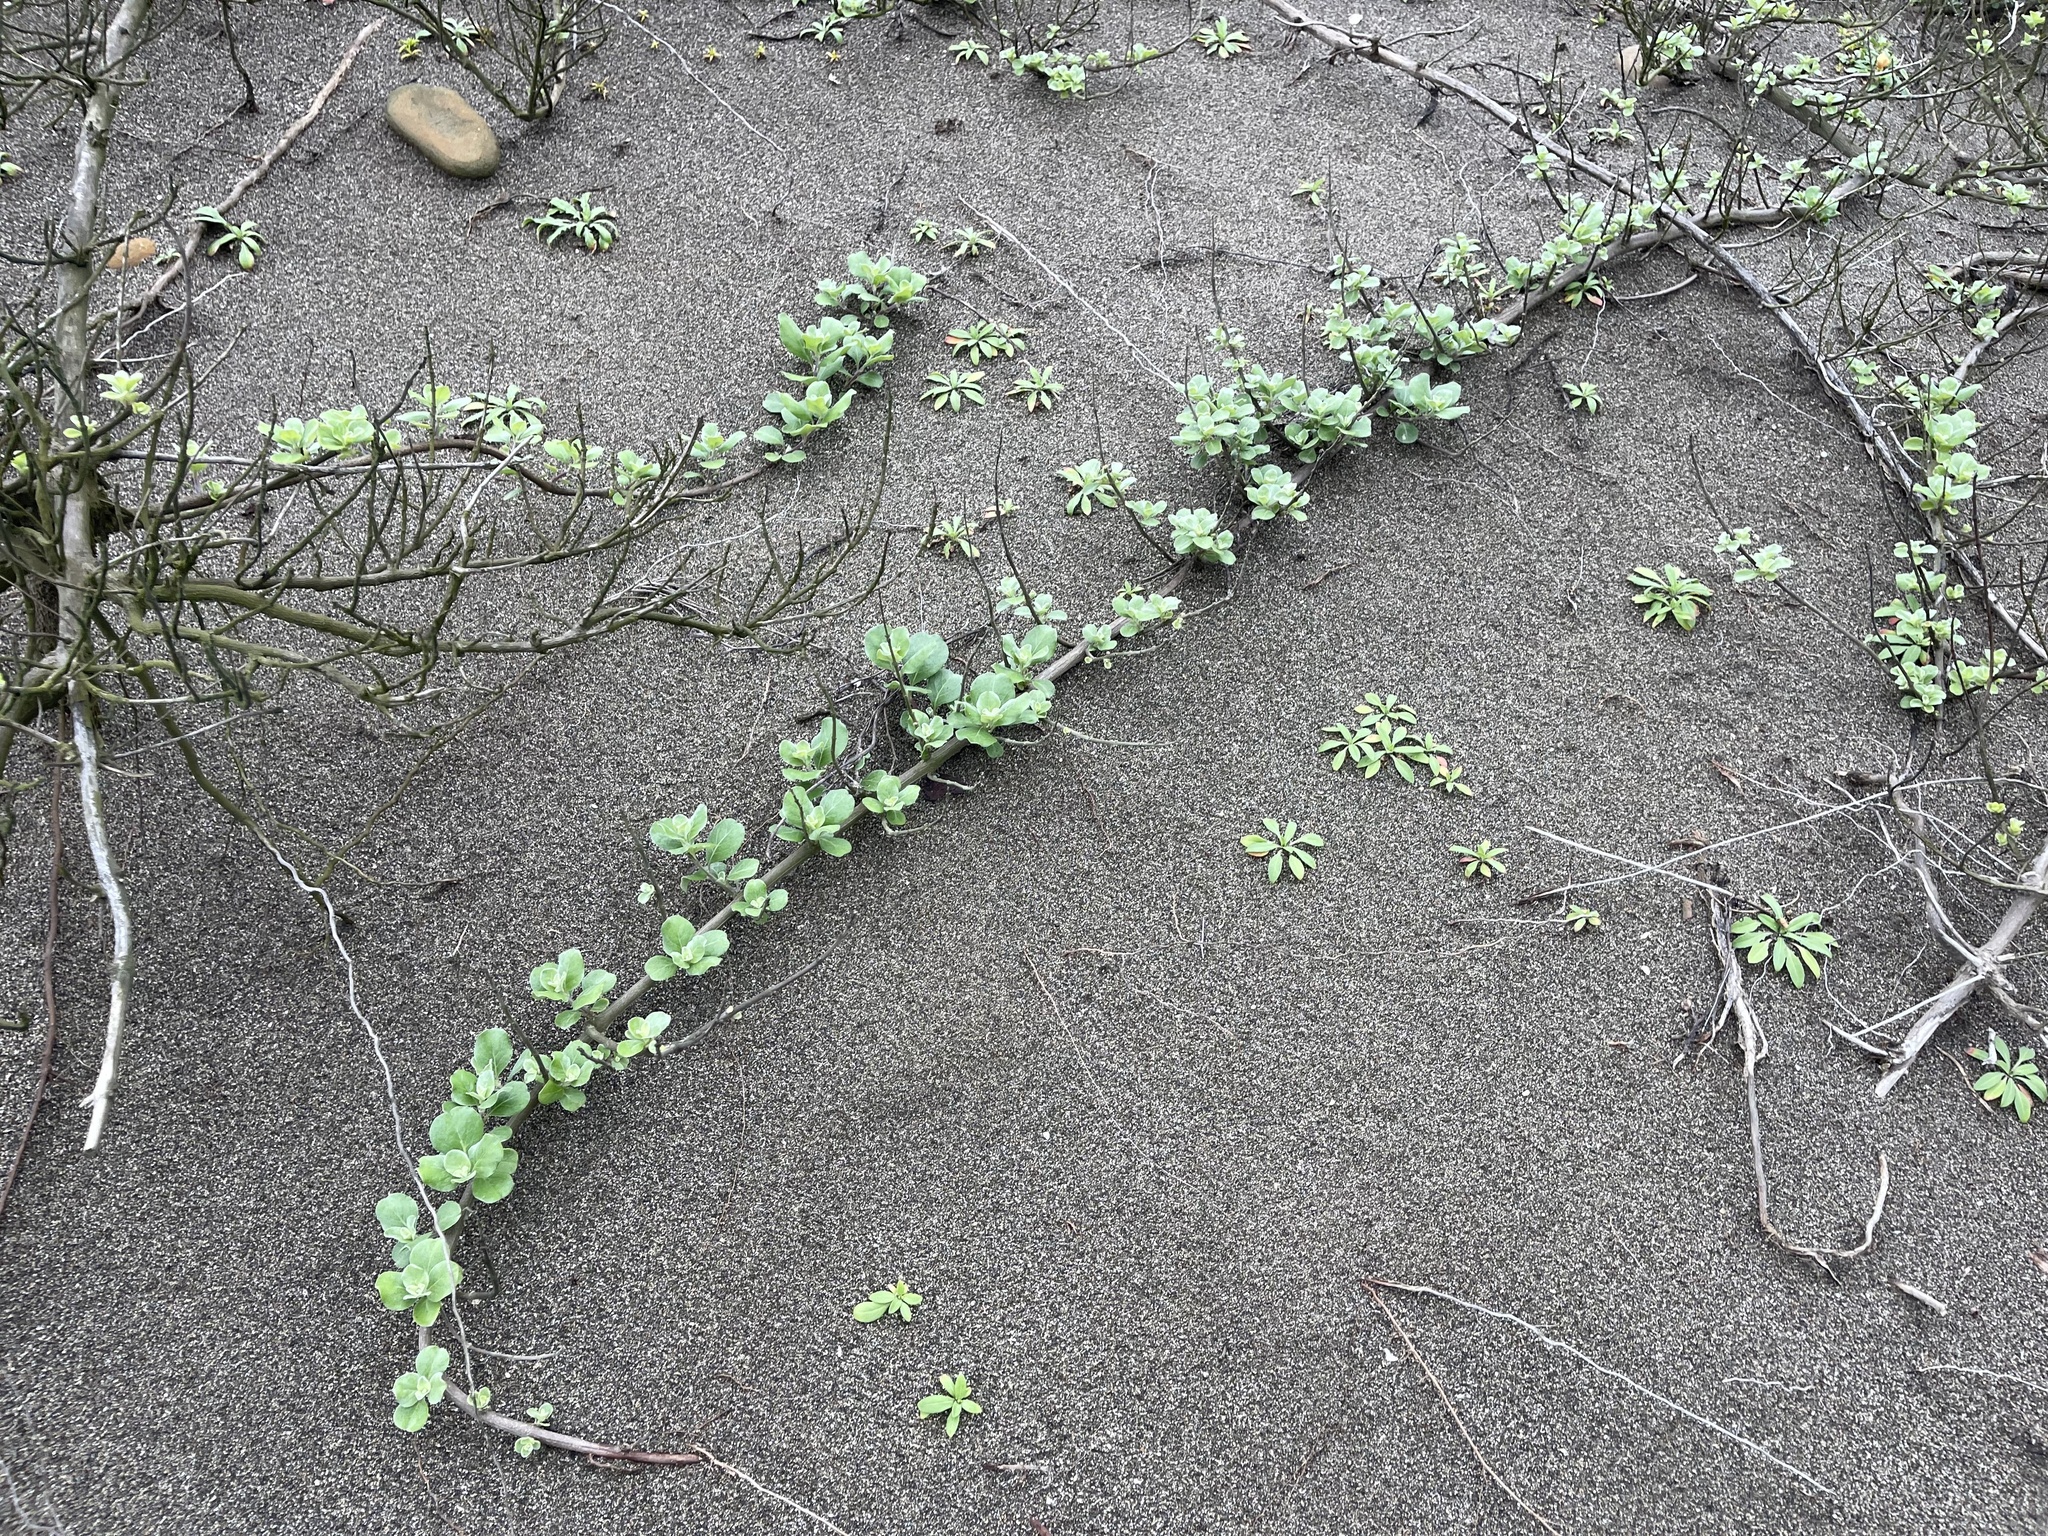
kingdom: Plantae
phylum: Tracheophyta
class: Magnoliopsida
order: Lamiales
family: Lamiaceae
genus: Vitex
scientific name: Vitex rotundifolia
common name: Beach vitex
